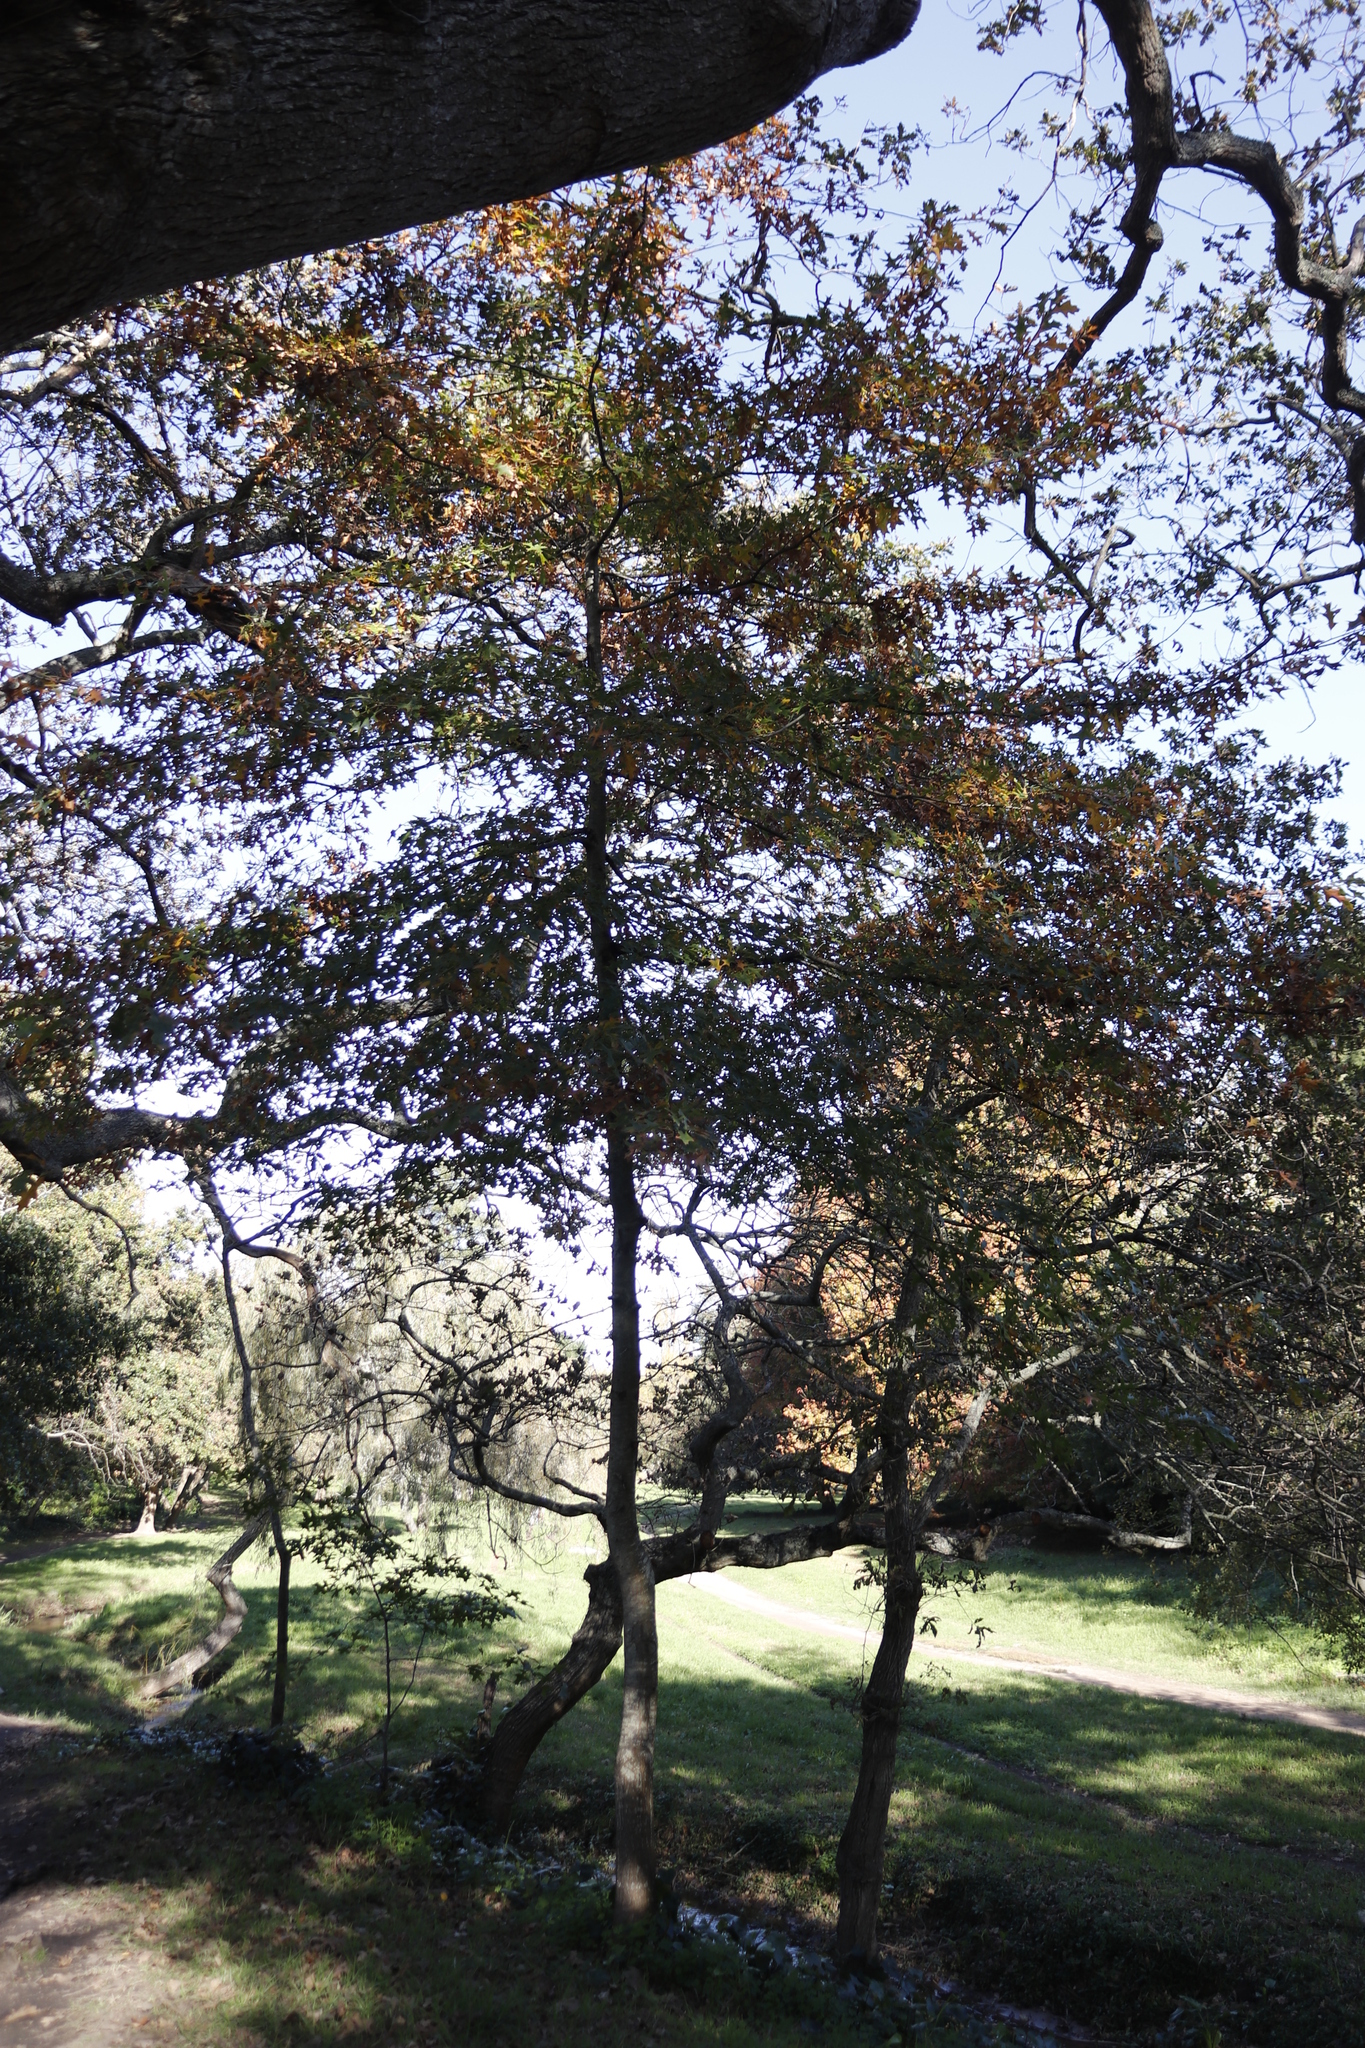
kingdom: Plantae
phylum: Tracheophyta
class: Magnoliopsida
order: Fagales
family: Fagaceae
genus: Quercus
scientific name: Quercus palustris
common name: Pin oak
